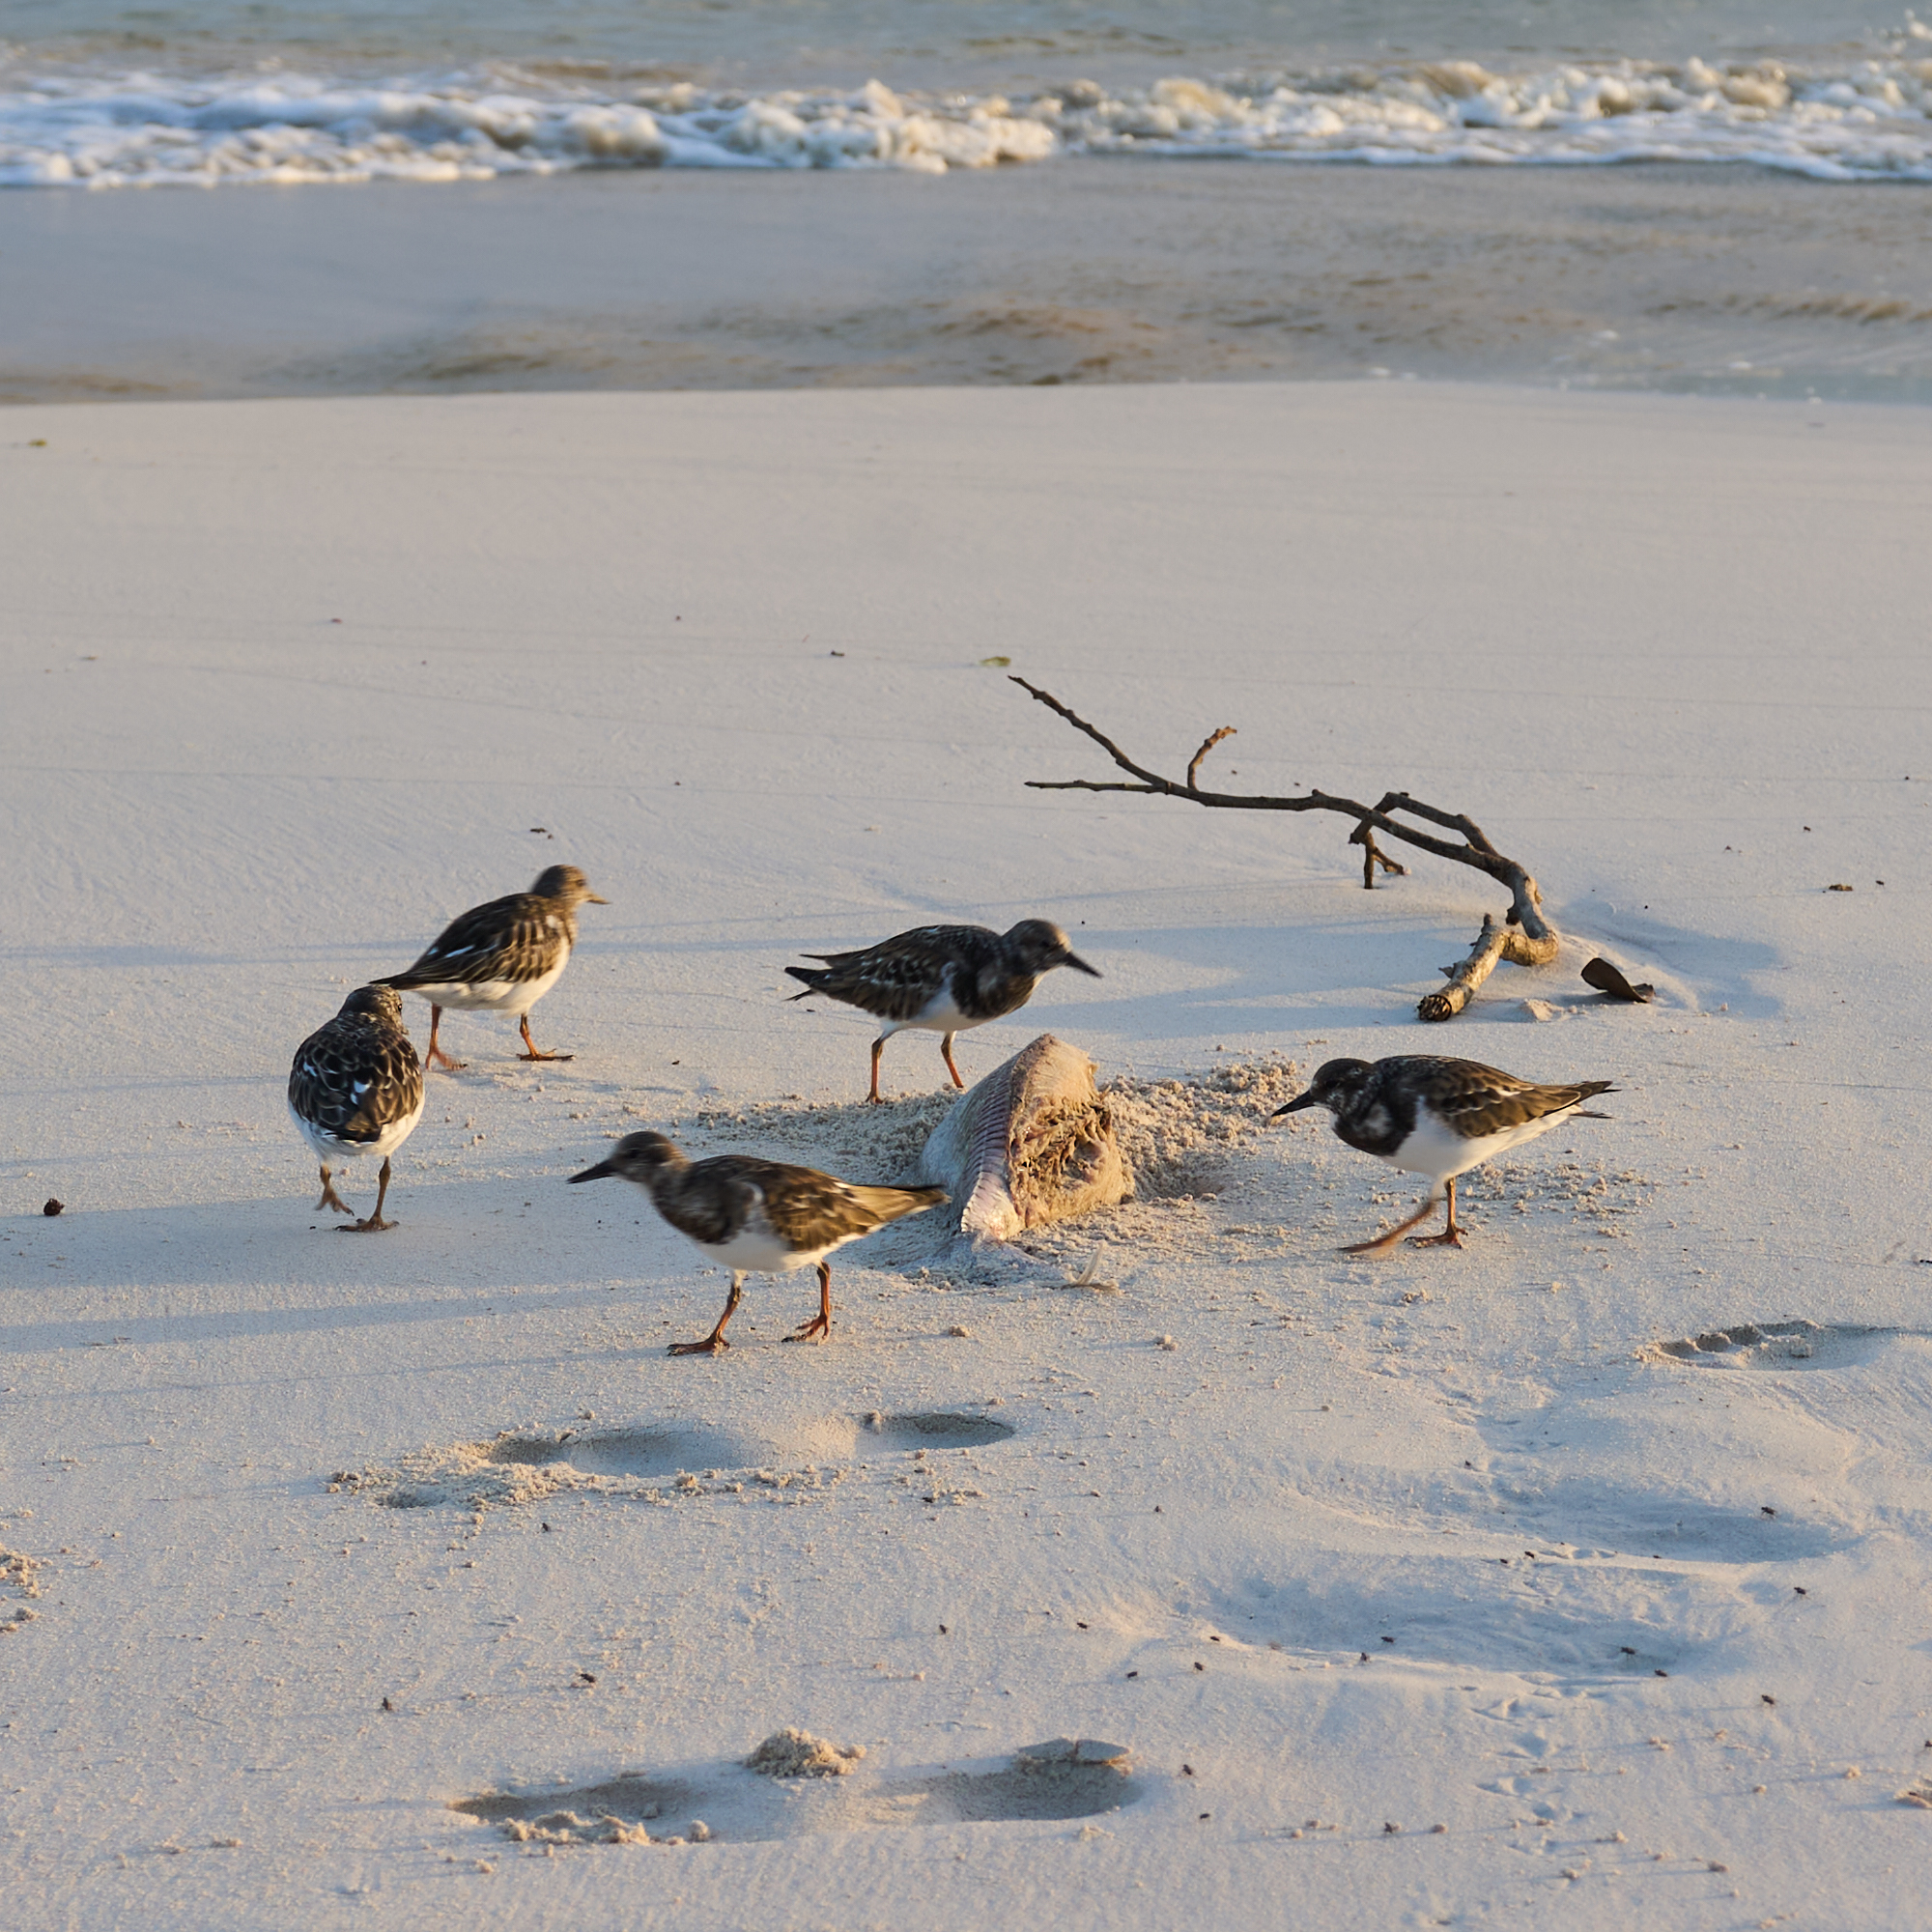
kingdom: Animalia
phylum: Chordata
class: Aves
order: Charadriiformes
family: Scolopacidae
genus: Arenaria
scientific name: Arenaria interpres
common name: Ruddy turnstone
